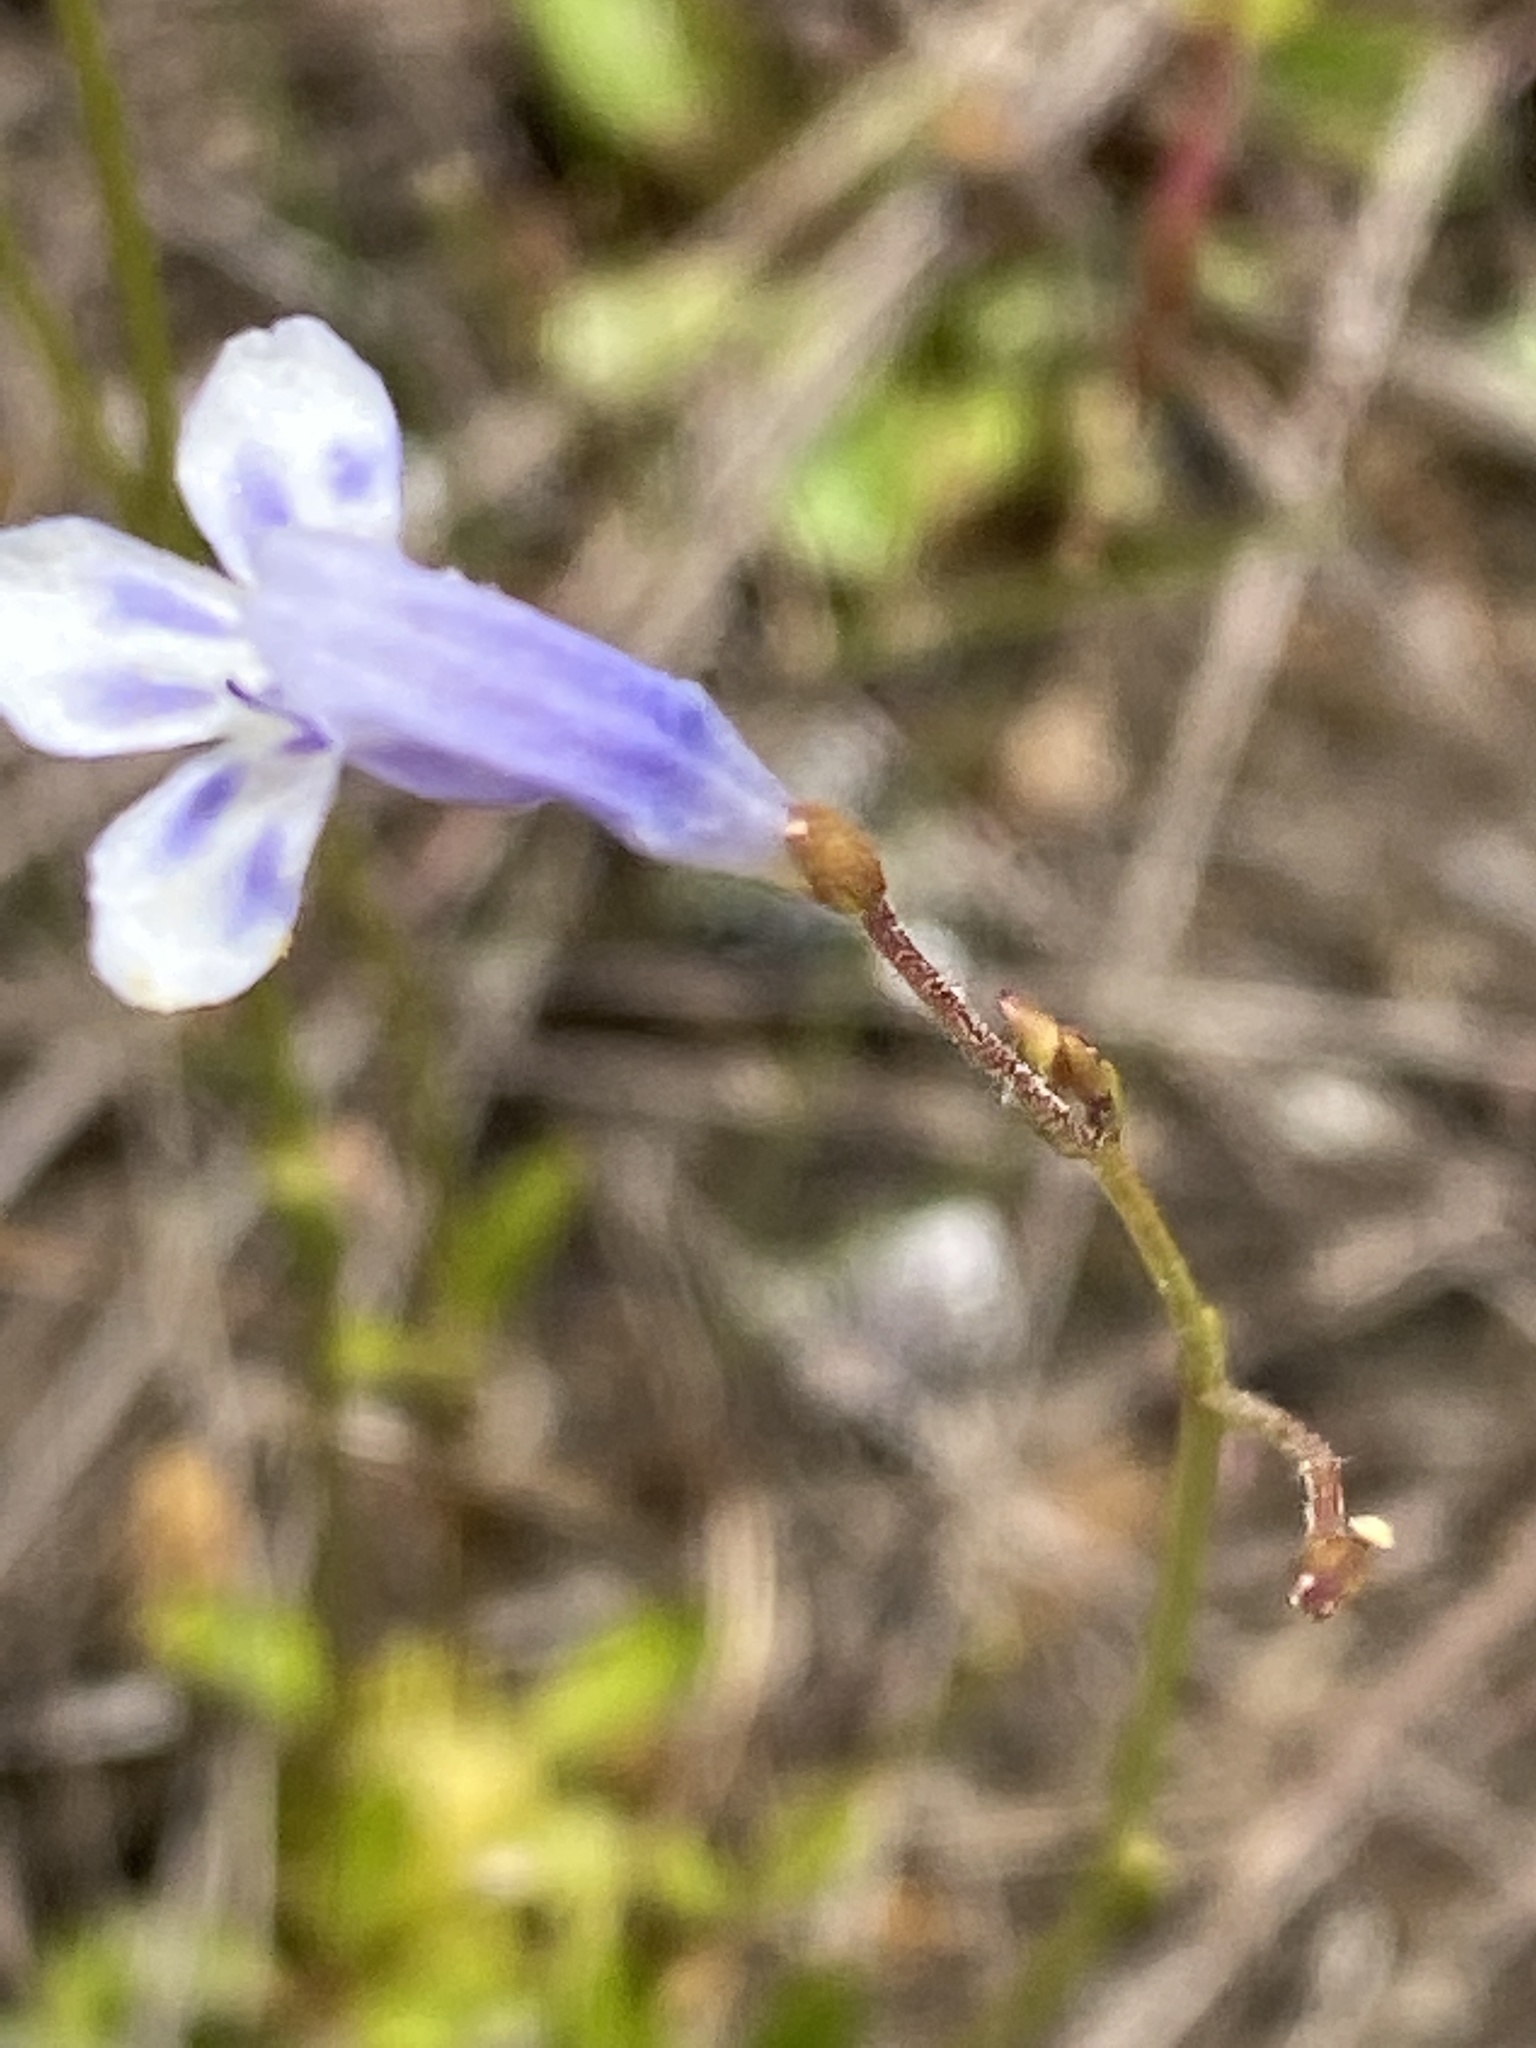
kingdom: Plantae
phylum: Tracheophyta
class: Magnoliopsida
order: Lamiales
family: Linderniaceae
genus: Lindernia
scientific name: Lindernia monticola
